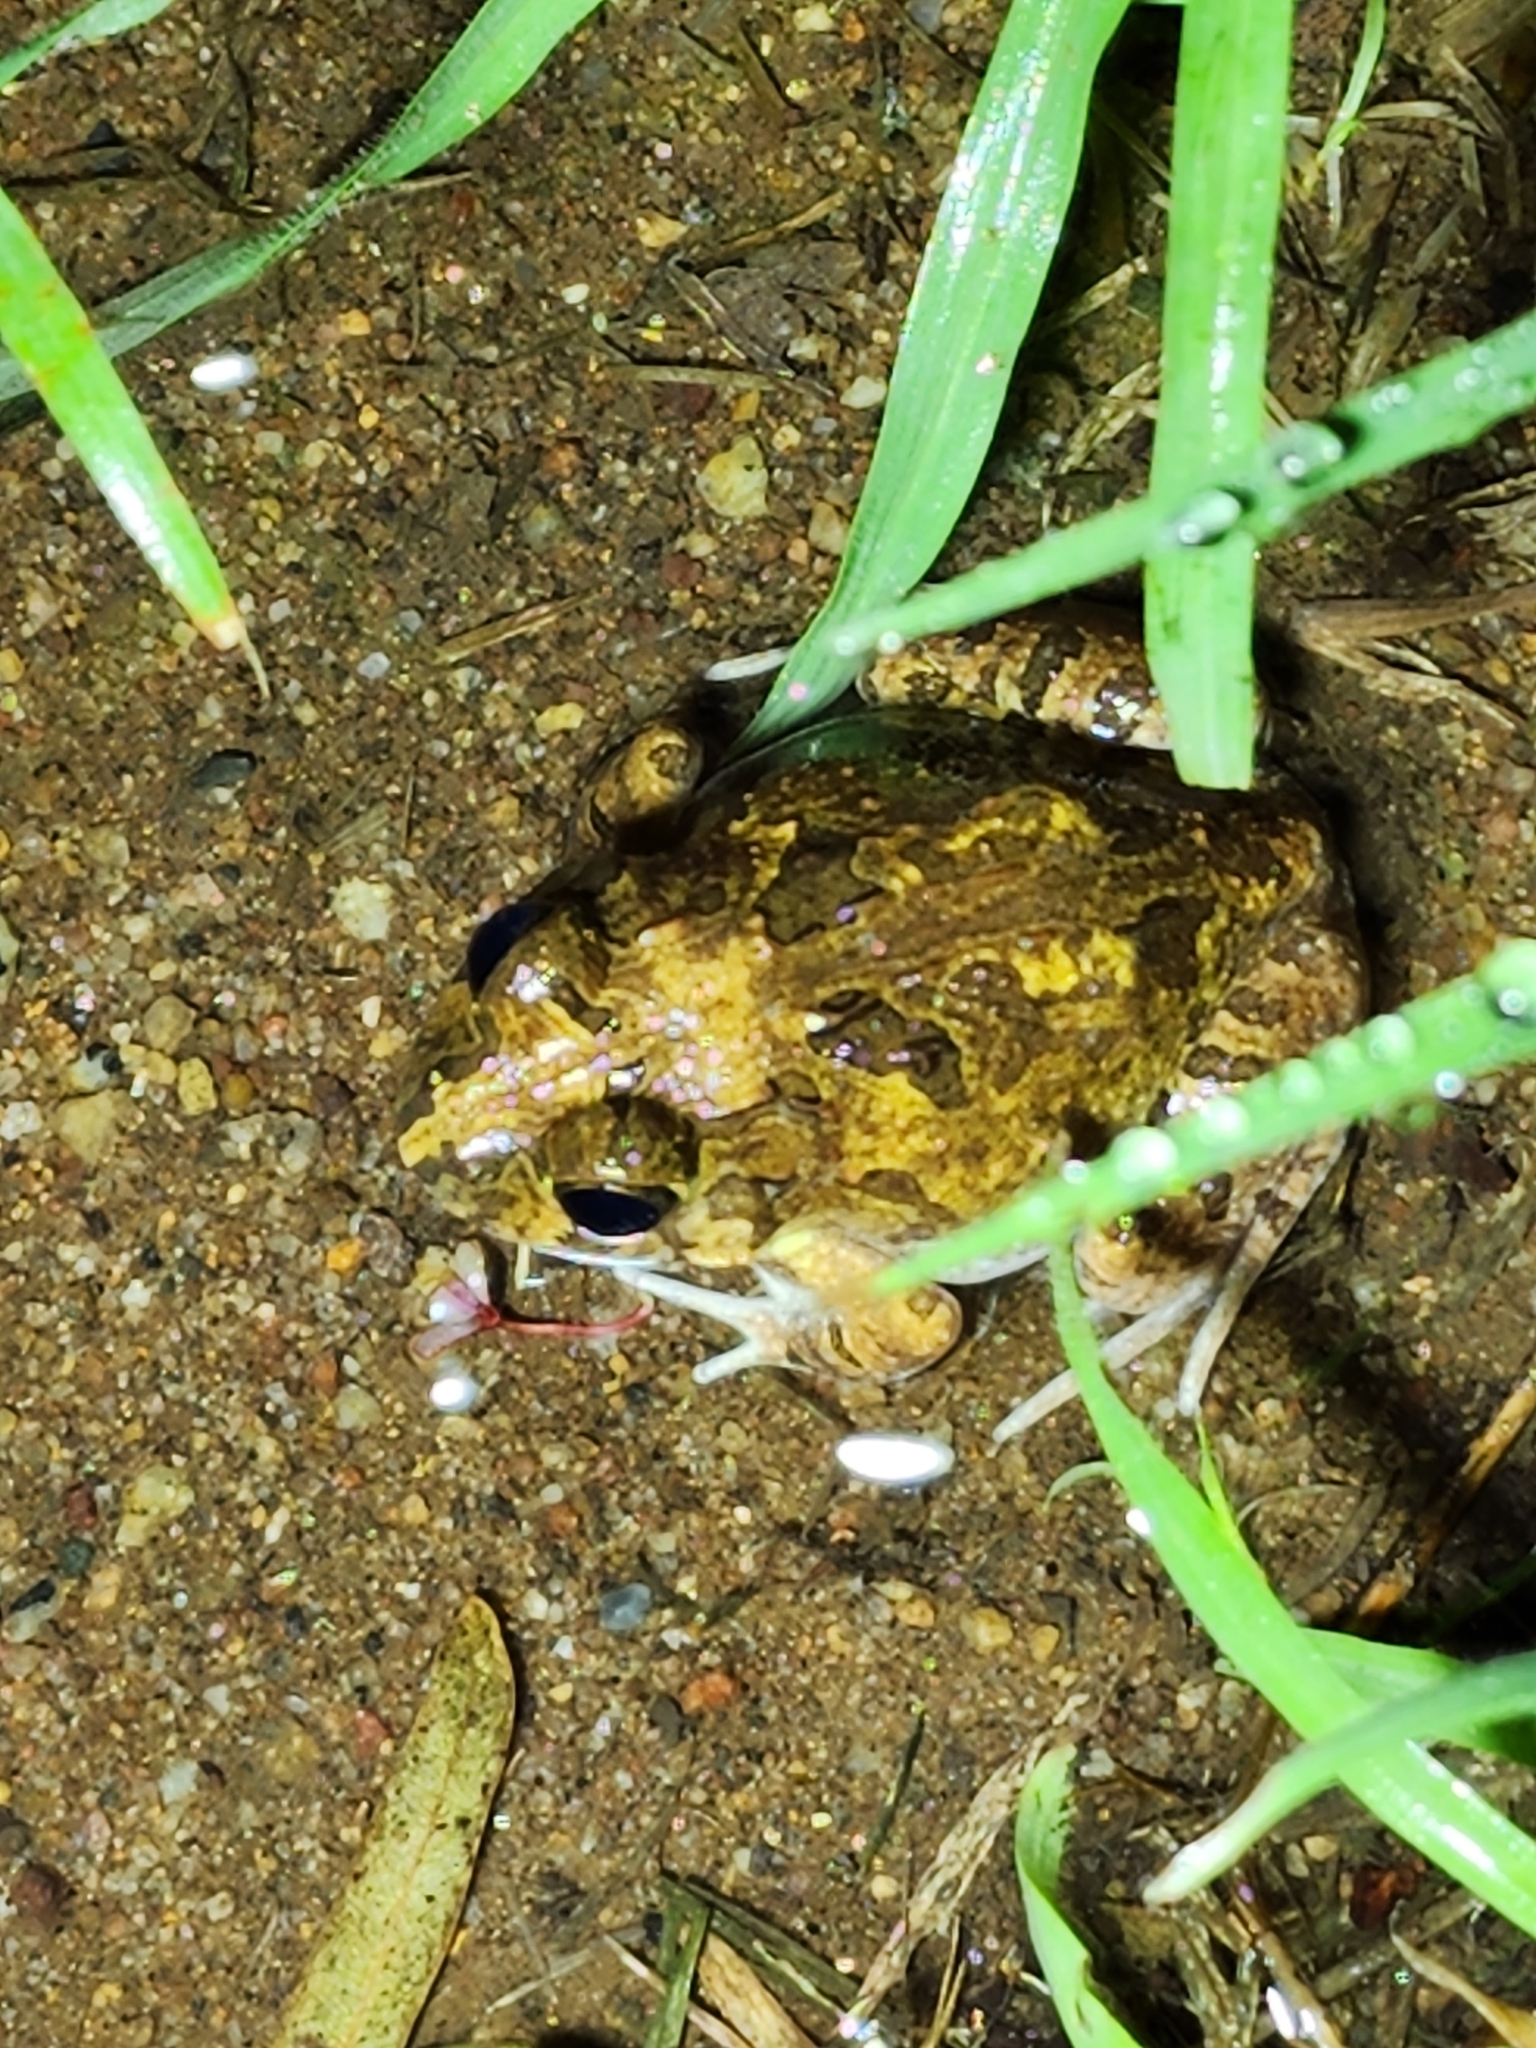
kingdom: Animalia
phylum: Chordata
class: Amphibia
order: Anura
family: Limnodynastidae
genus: Platyplectrum
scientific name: Platyplectrum ornatum
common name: Ornate burrowing frog
